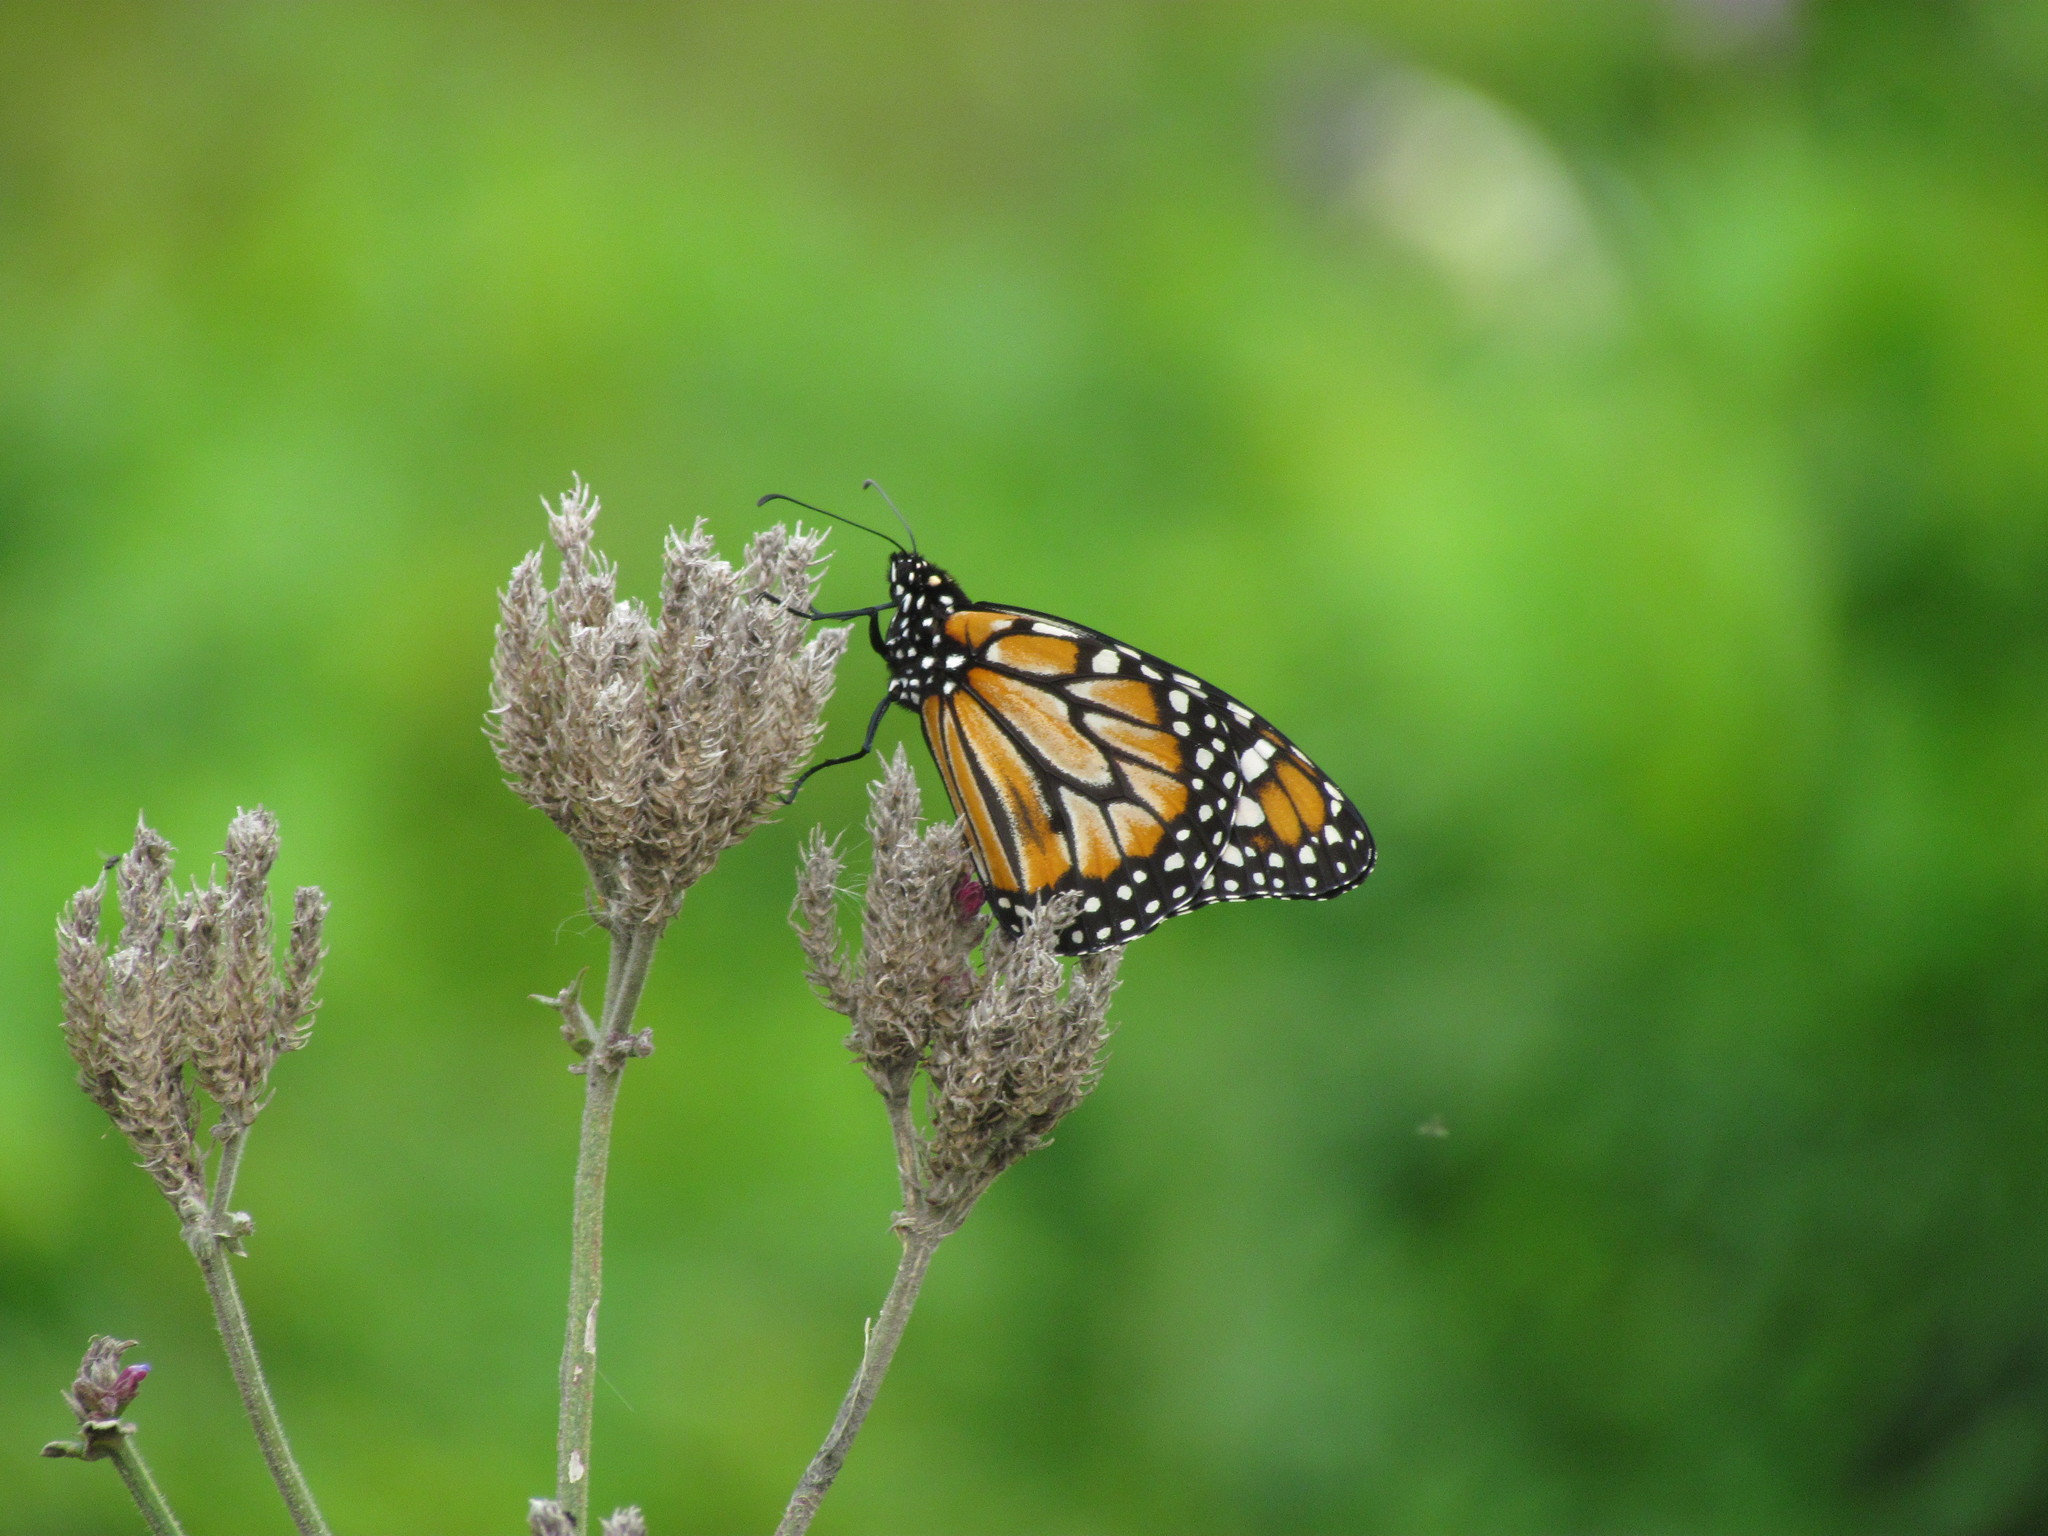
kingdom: Animalia
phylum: Arthropoda
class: Insecta
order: Lepidoptera
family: Nymphalidae
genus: Danaus
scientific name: Danaus erippus
